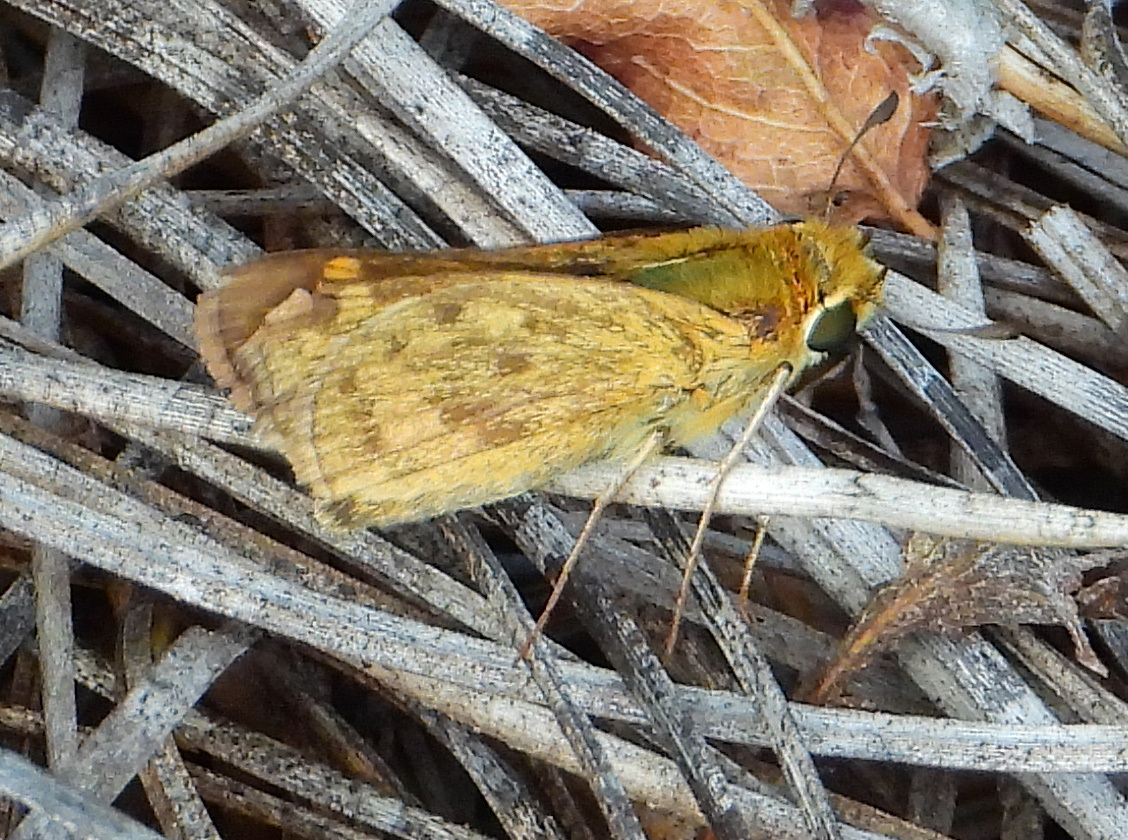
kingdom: Animalia
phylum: Arthropoda
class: Insecta
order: Lepidoptera
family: Hesperiidae
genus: Hylephila
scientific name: Hylephila phyleus
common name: Fiery skipper
